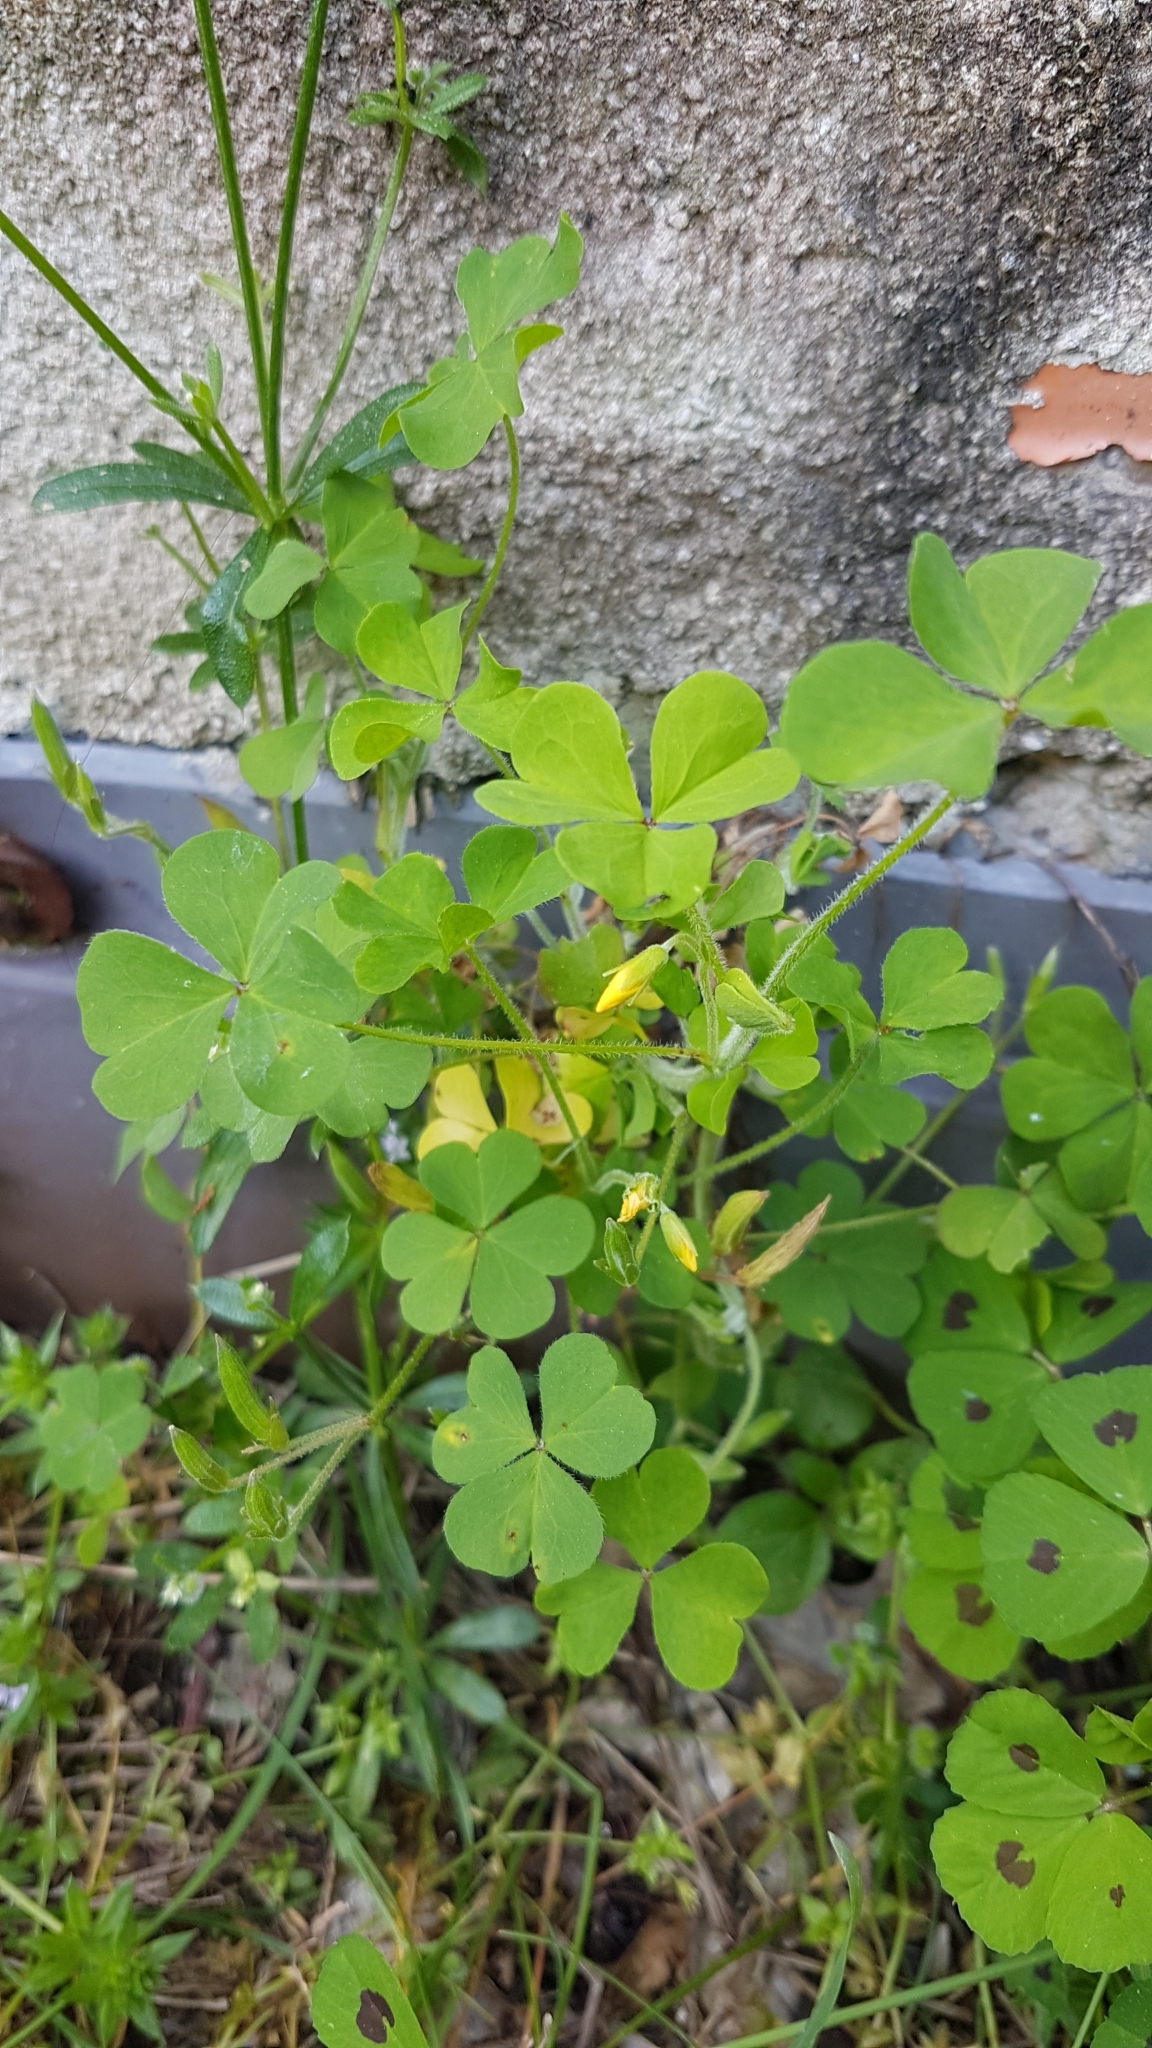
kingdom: Plantae
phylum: Tracheophyta
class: Magnoliopsida
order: Oxalidales
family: Oxalidaceae
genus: Oxalis
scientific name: Oxalis corniculata
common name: Procumbent yellow-sorrel
